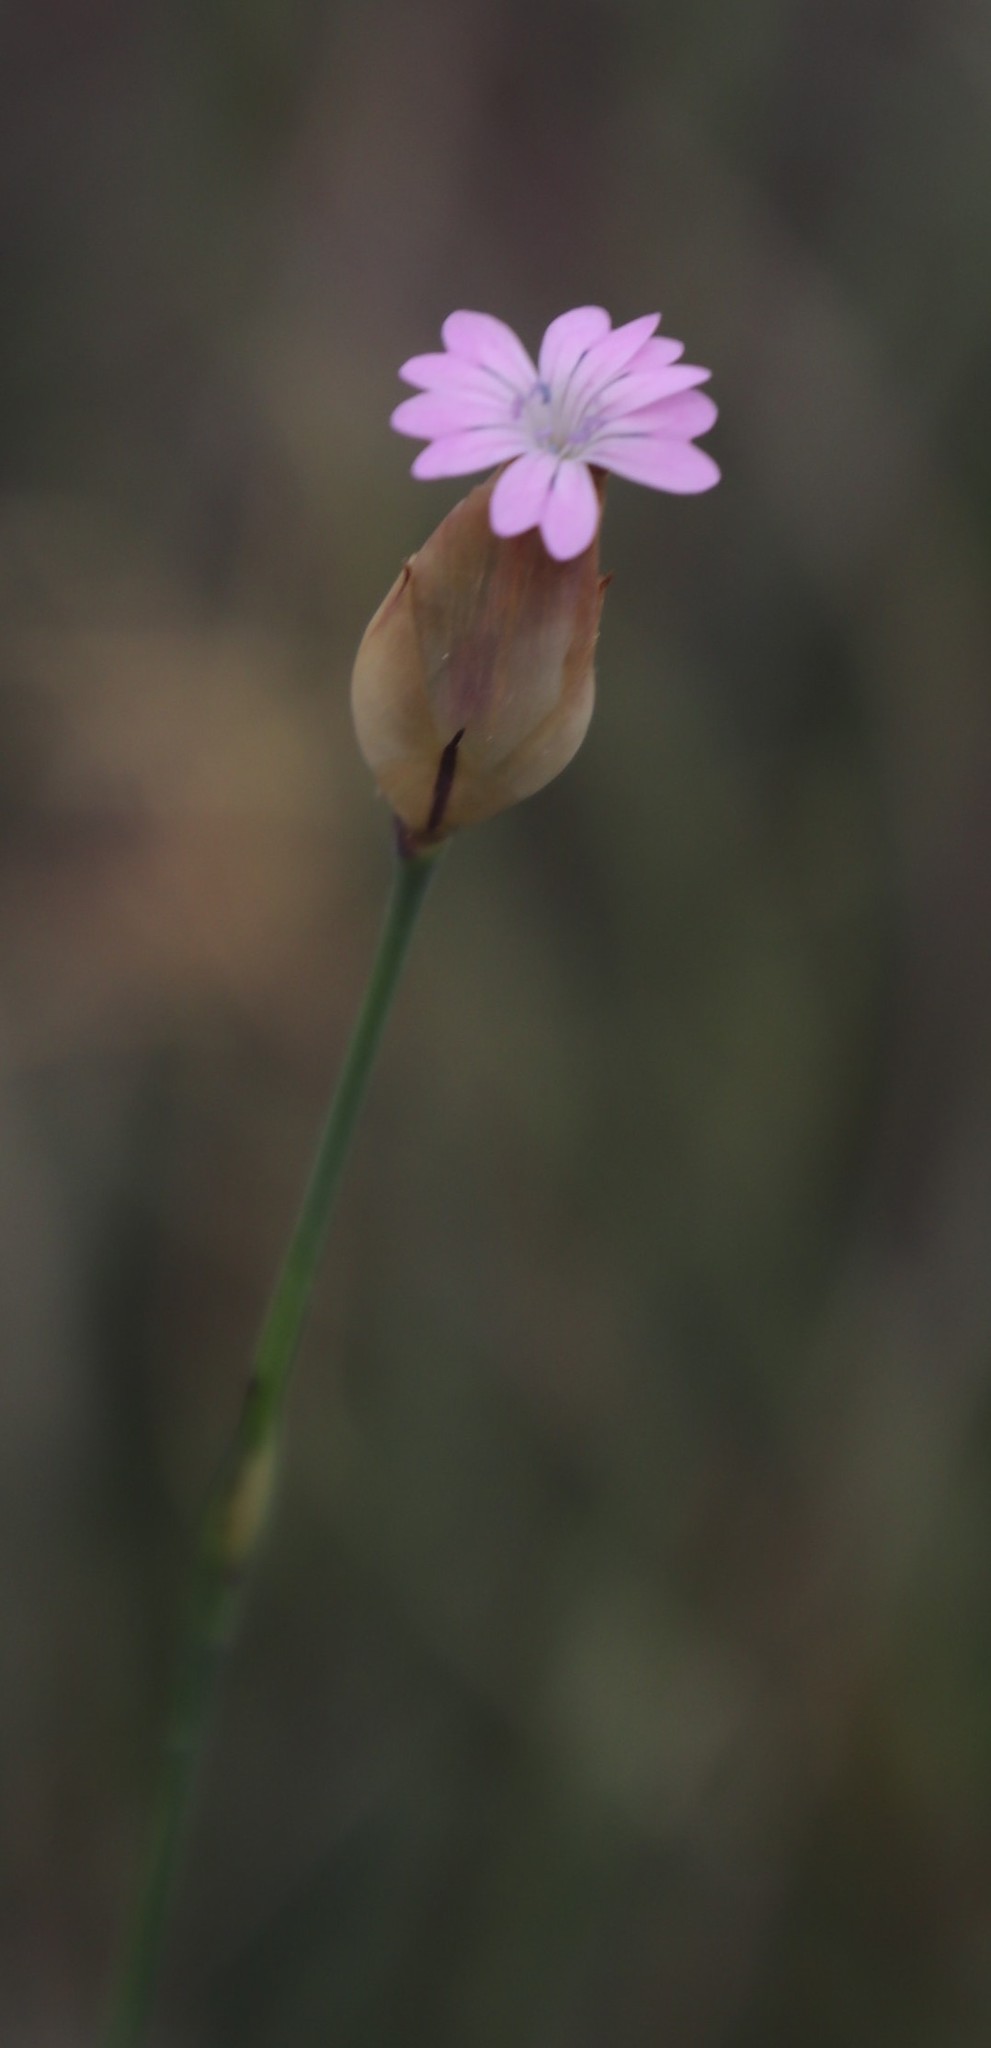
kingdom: Plantae
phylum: Tracheophyta
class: Magnoliopsida
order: Caryophyllales
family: Caryophyllaceae
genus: Petrorhagia
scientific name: Petrorhagia prolifera
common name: Proliferous pink
